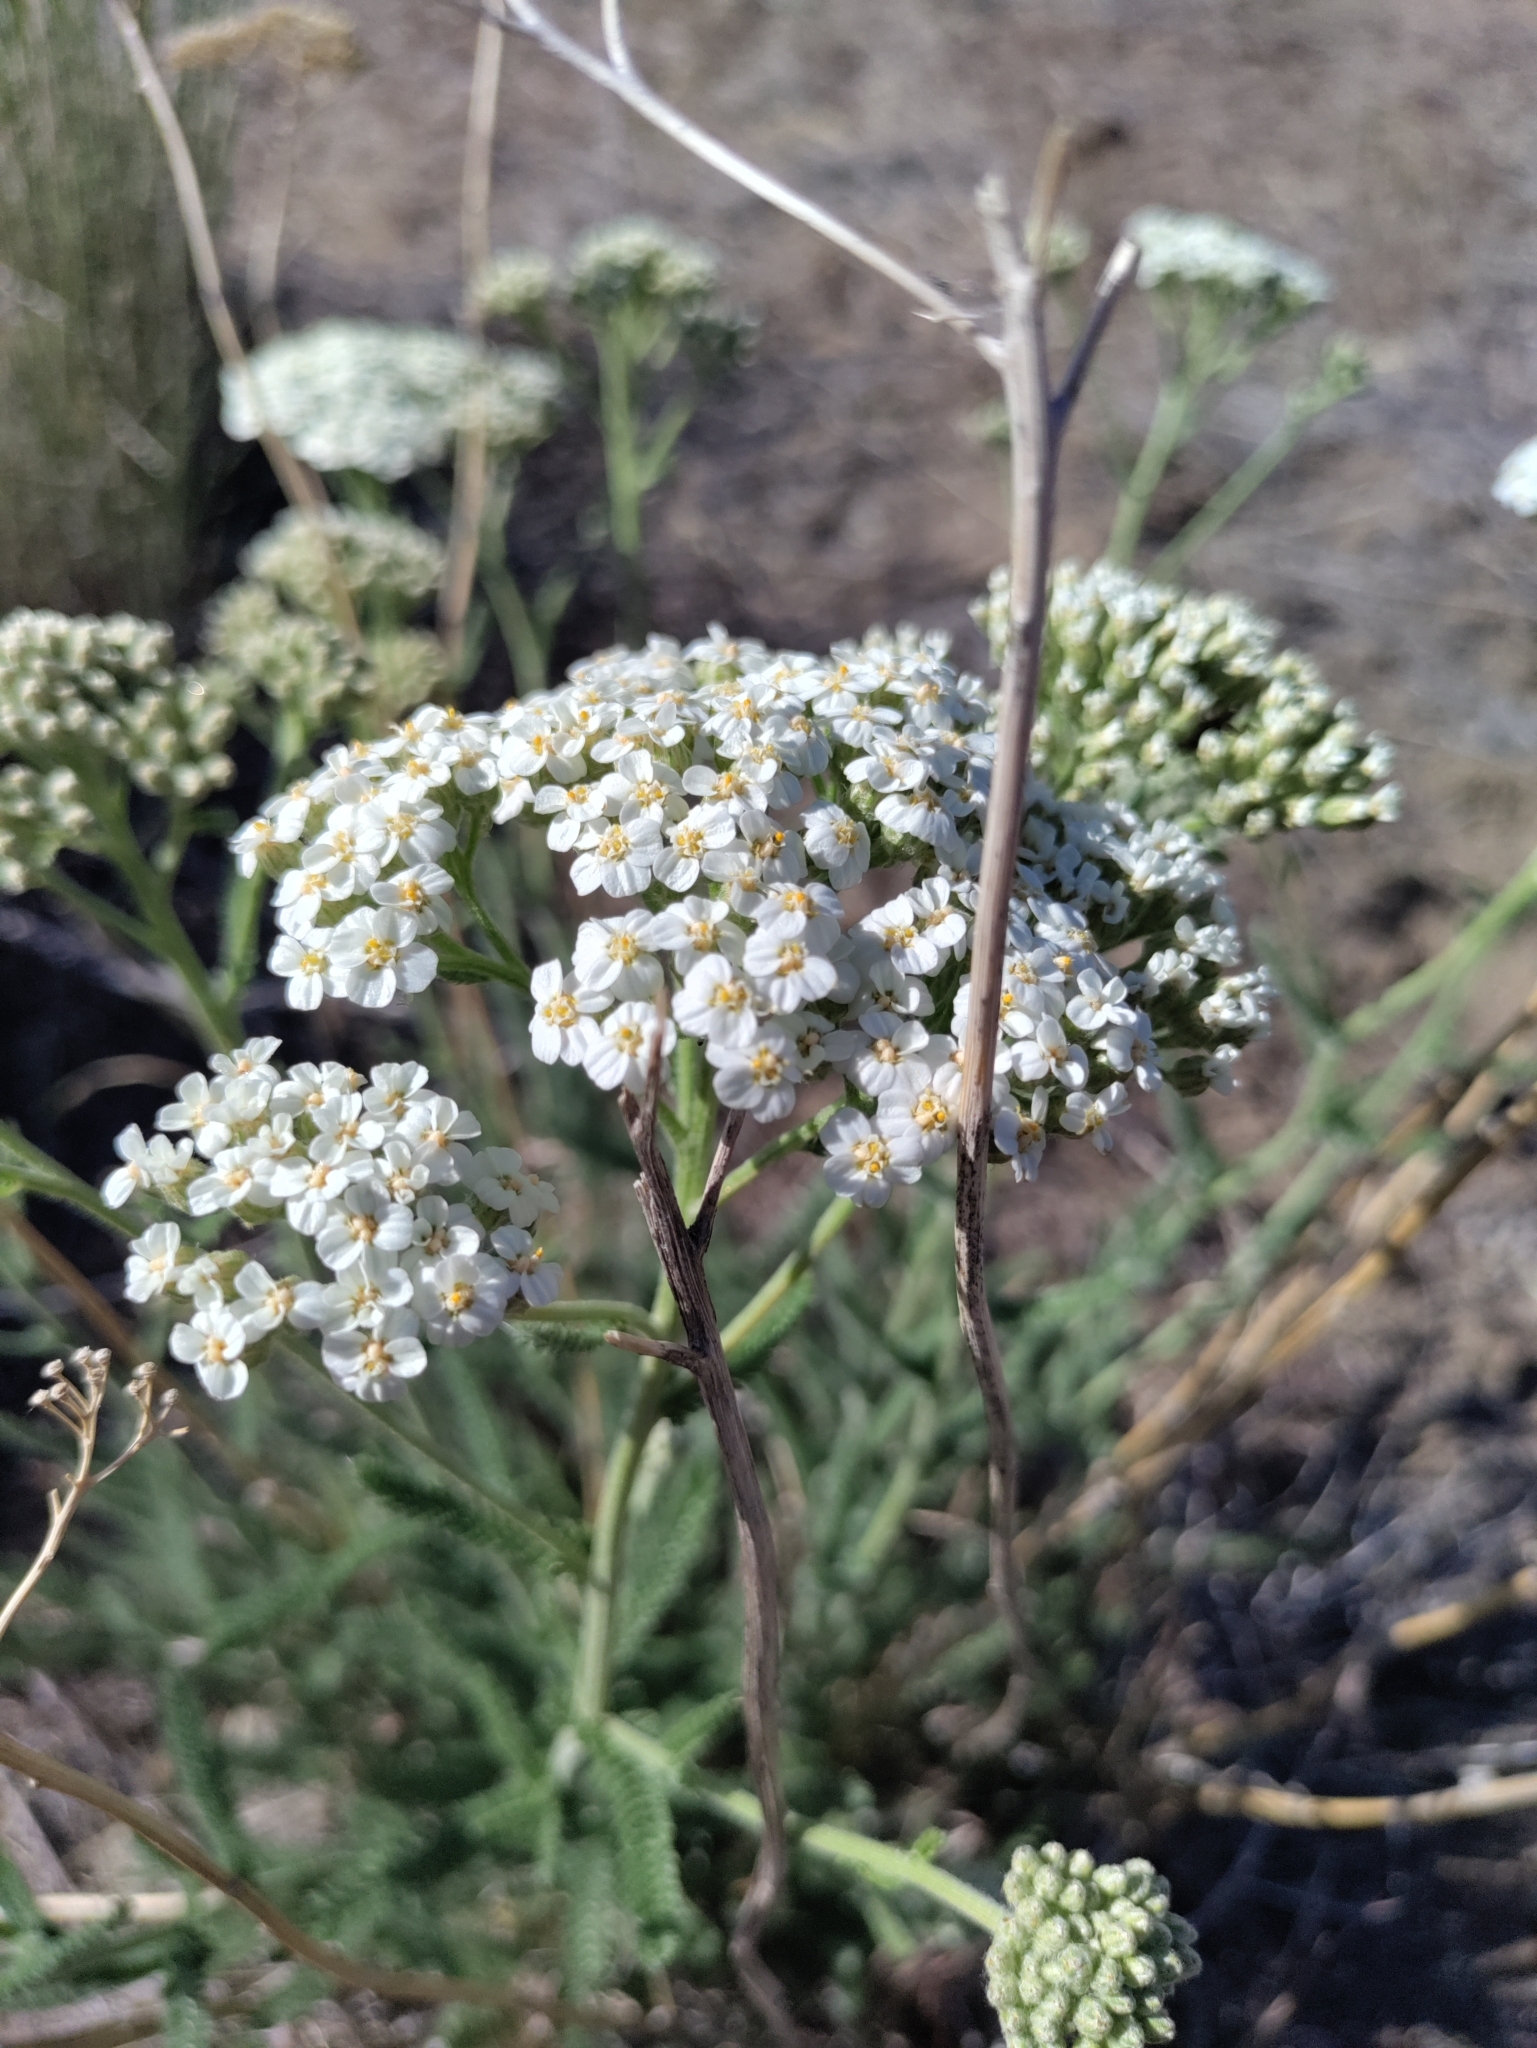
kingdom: Plantae
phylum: Tracheophyta
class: Magnoliopsida
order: Asterales
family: Asteraceae
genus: Achillea
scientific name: Achillea millefolium
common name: Yarrow
